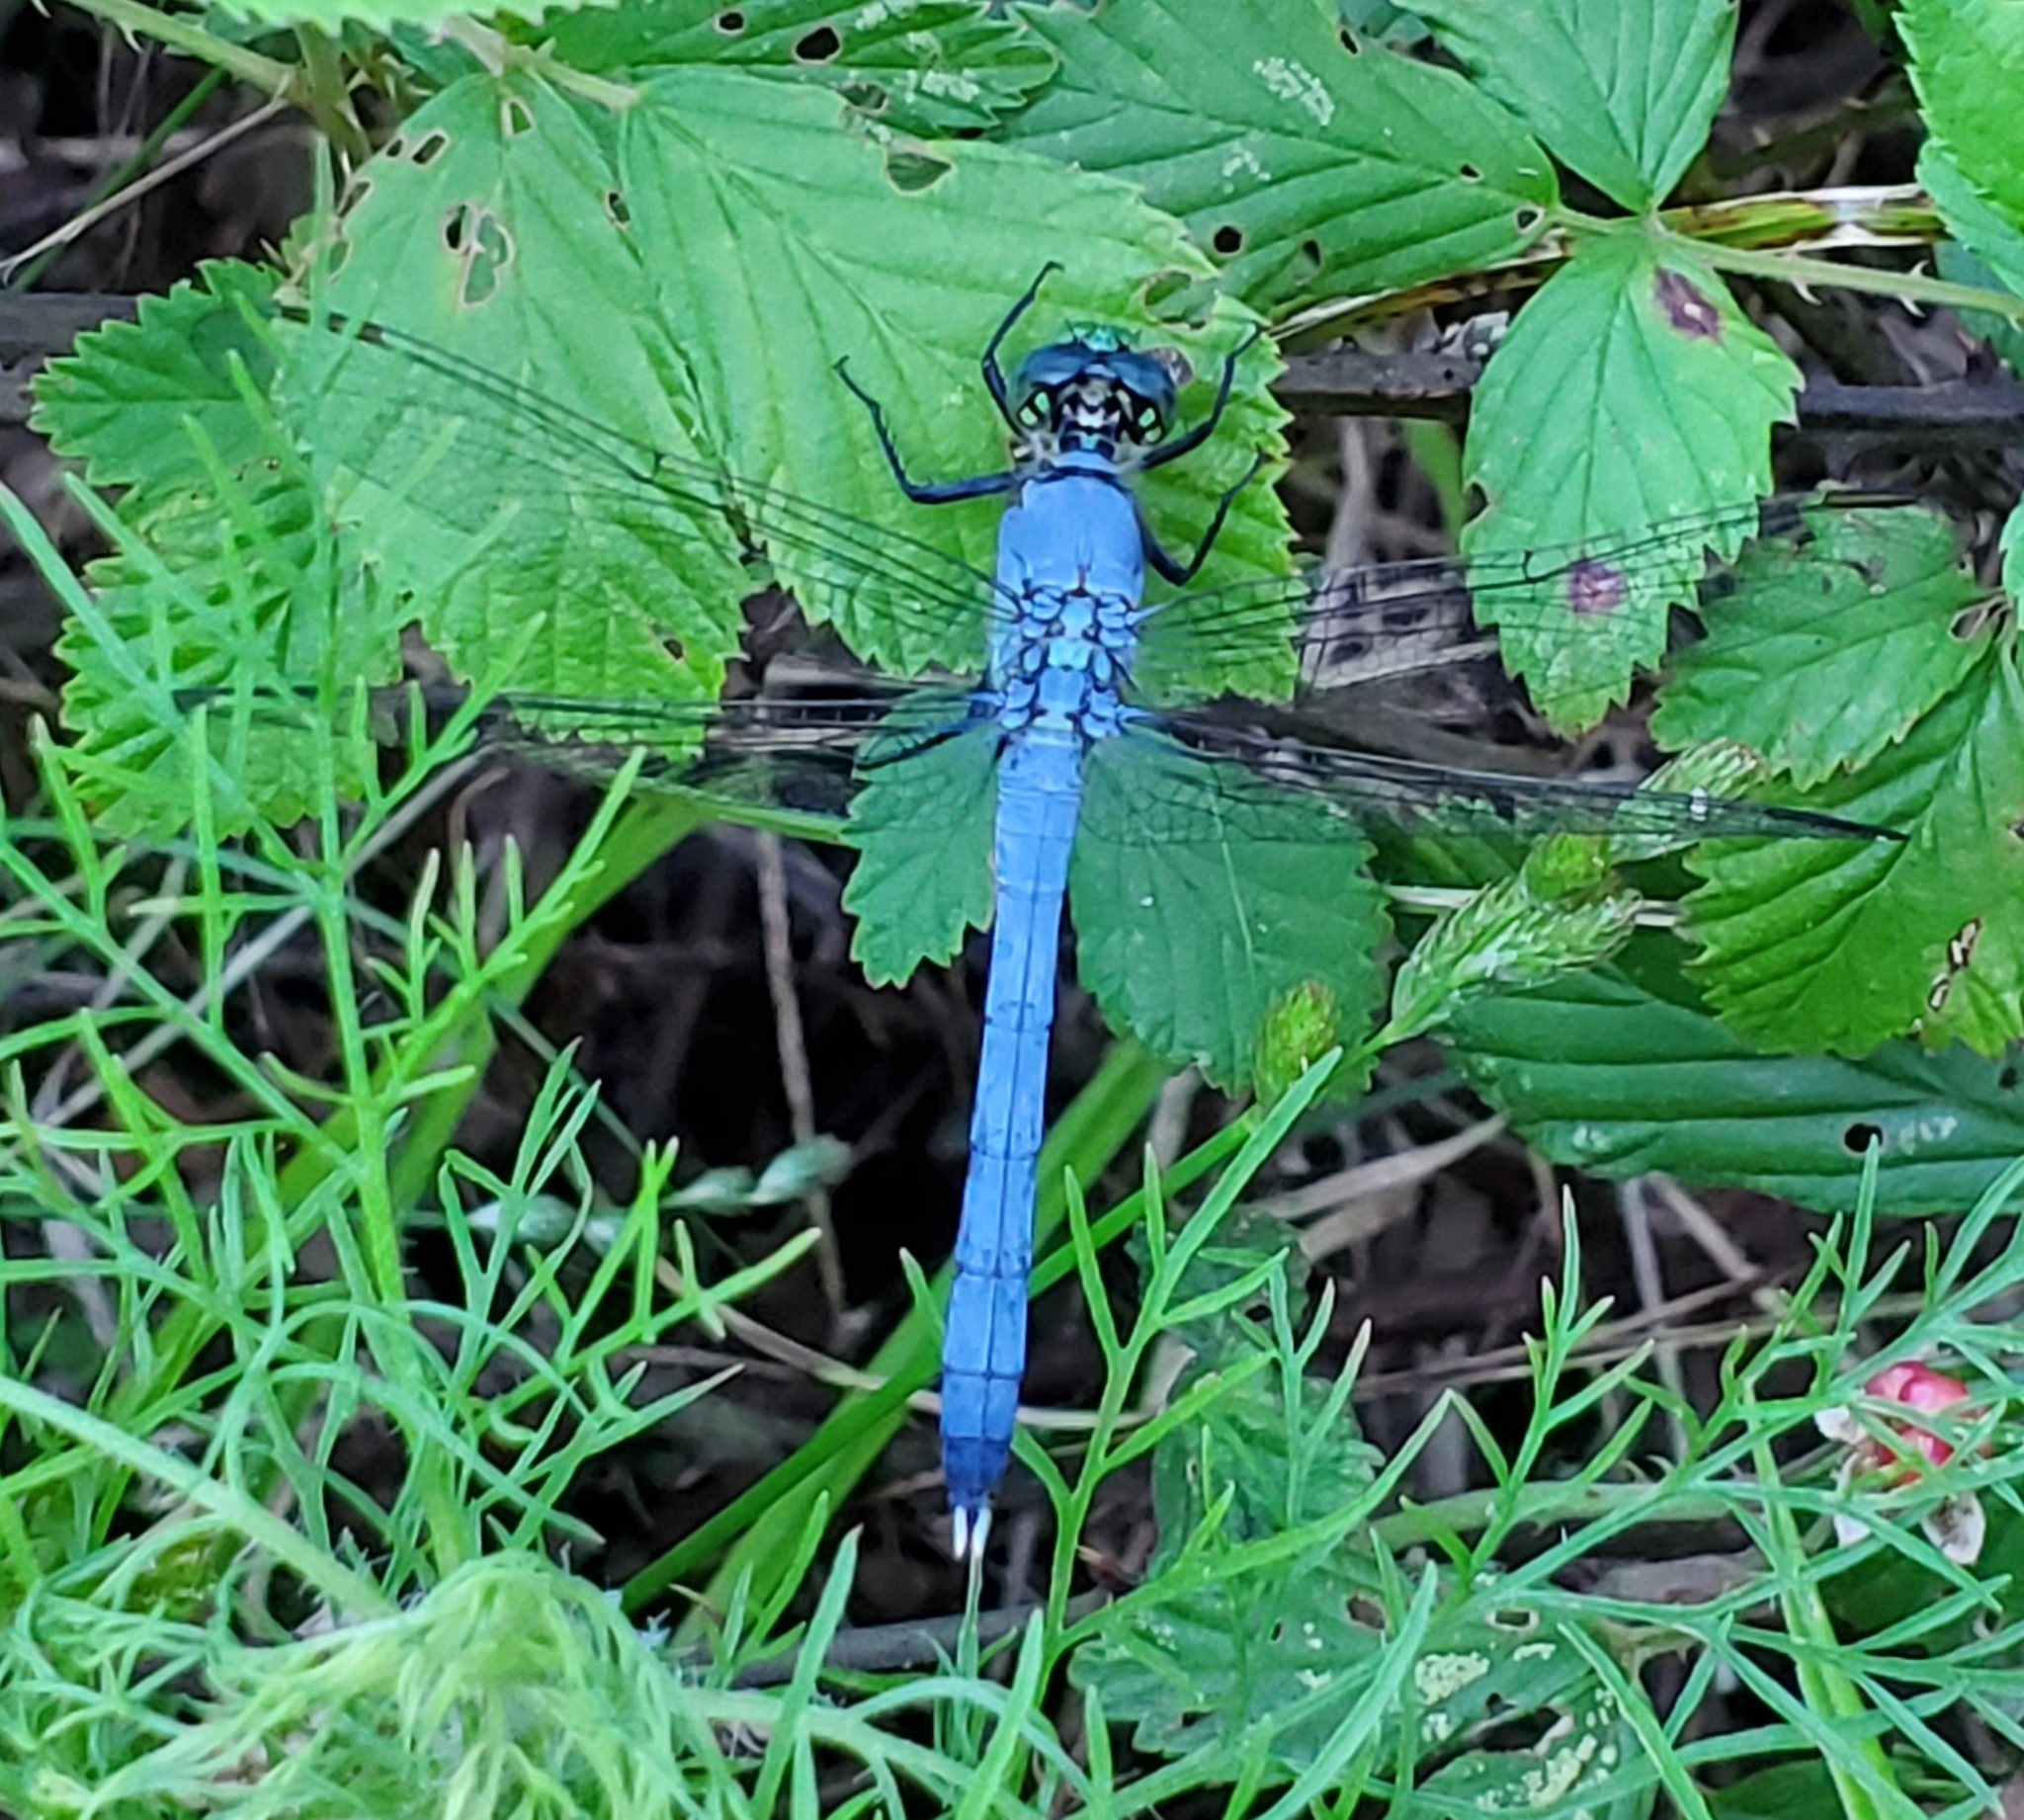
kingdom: Animalia
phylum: Arthropoda
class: Insecta
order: Odonata
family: Libellulidae
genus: Erythemis
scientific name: Erythemis simplicicollis
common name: Eastern pondhawk
